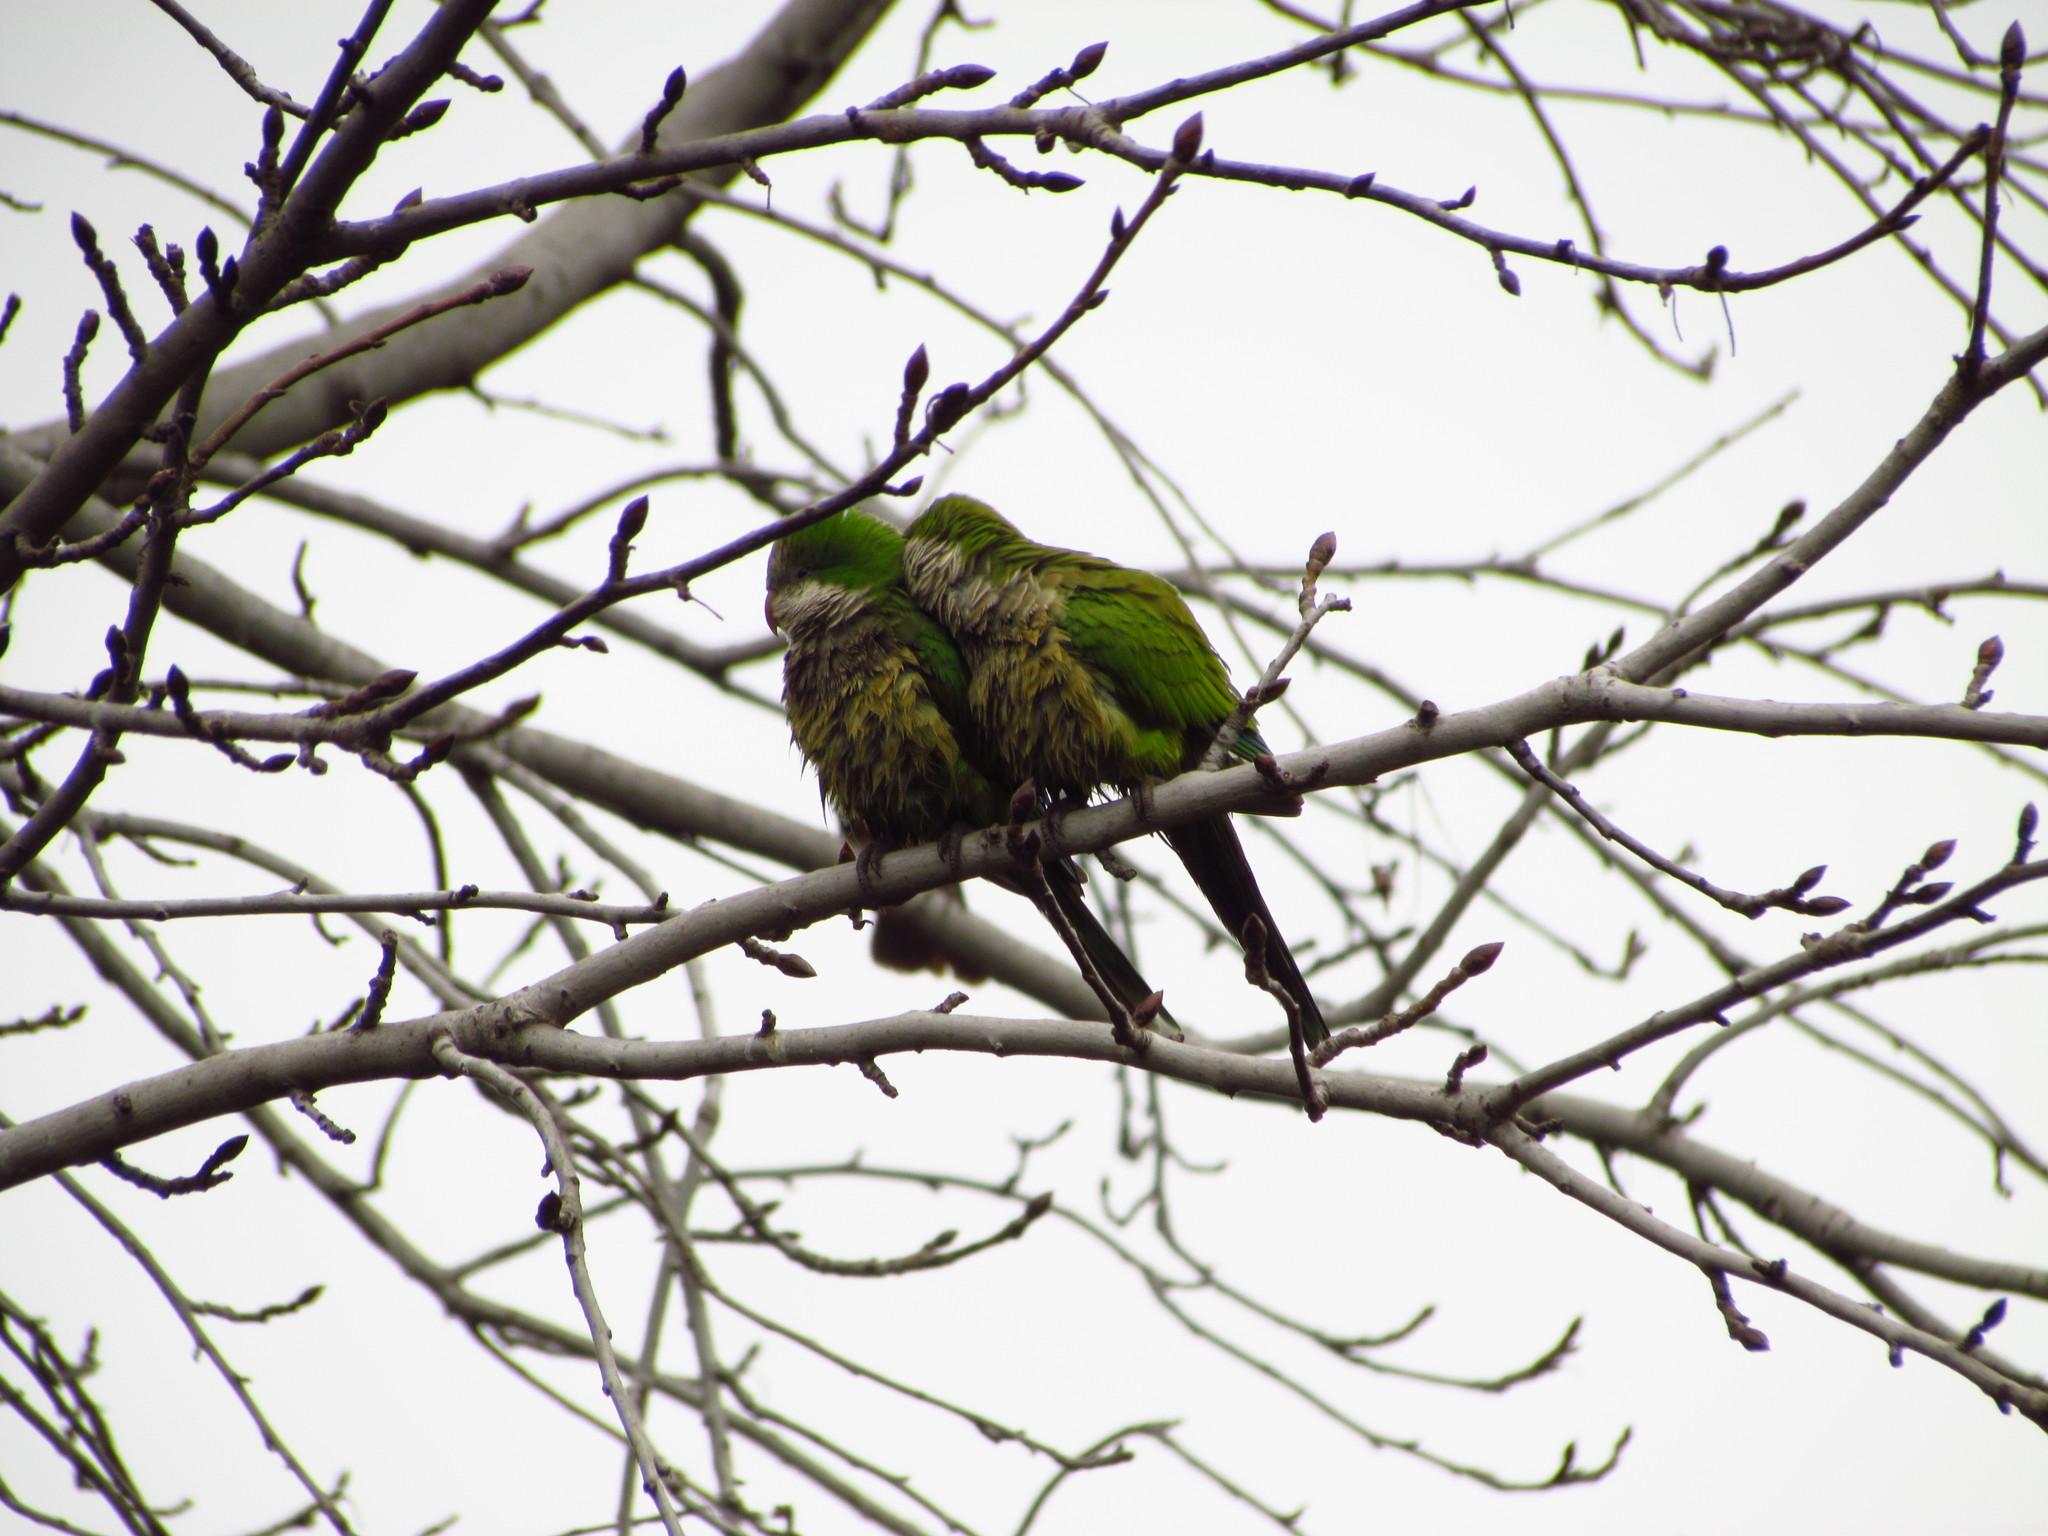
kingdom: Animalia
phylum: Chordata
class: Aves
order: Psittaciformes
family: Psittacidae
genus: Myiopsitta
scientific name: Myiopsitta monachus
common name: Monk parakeet
